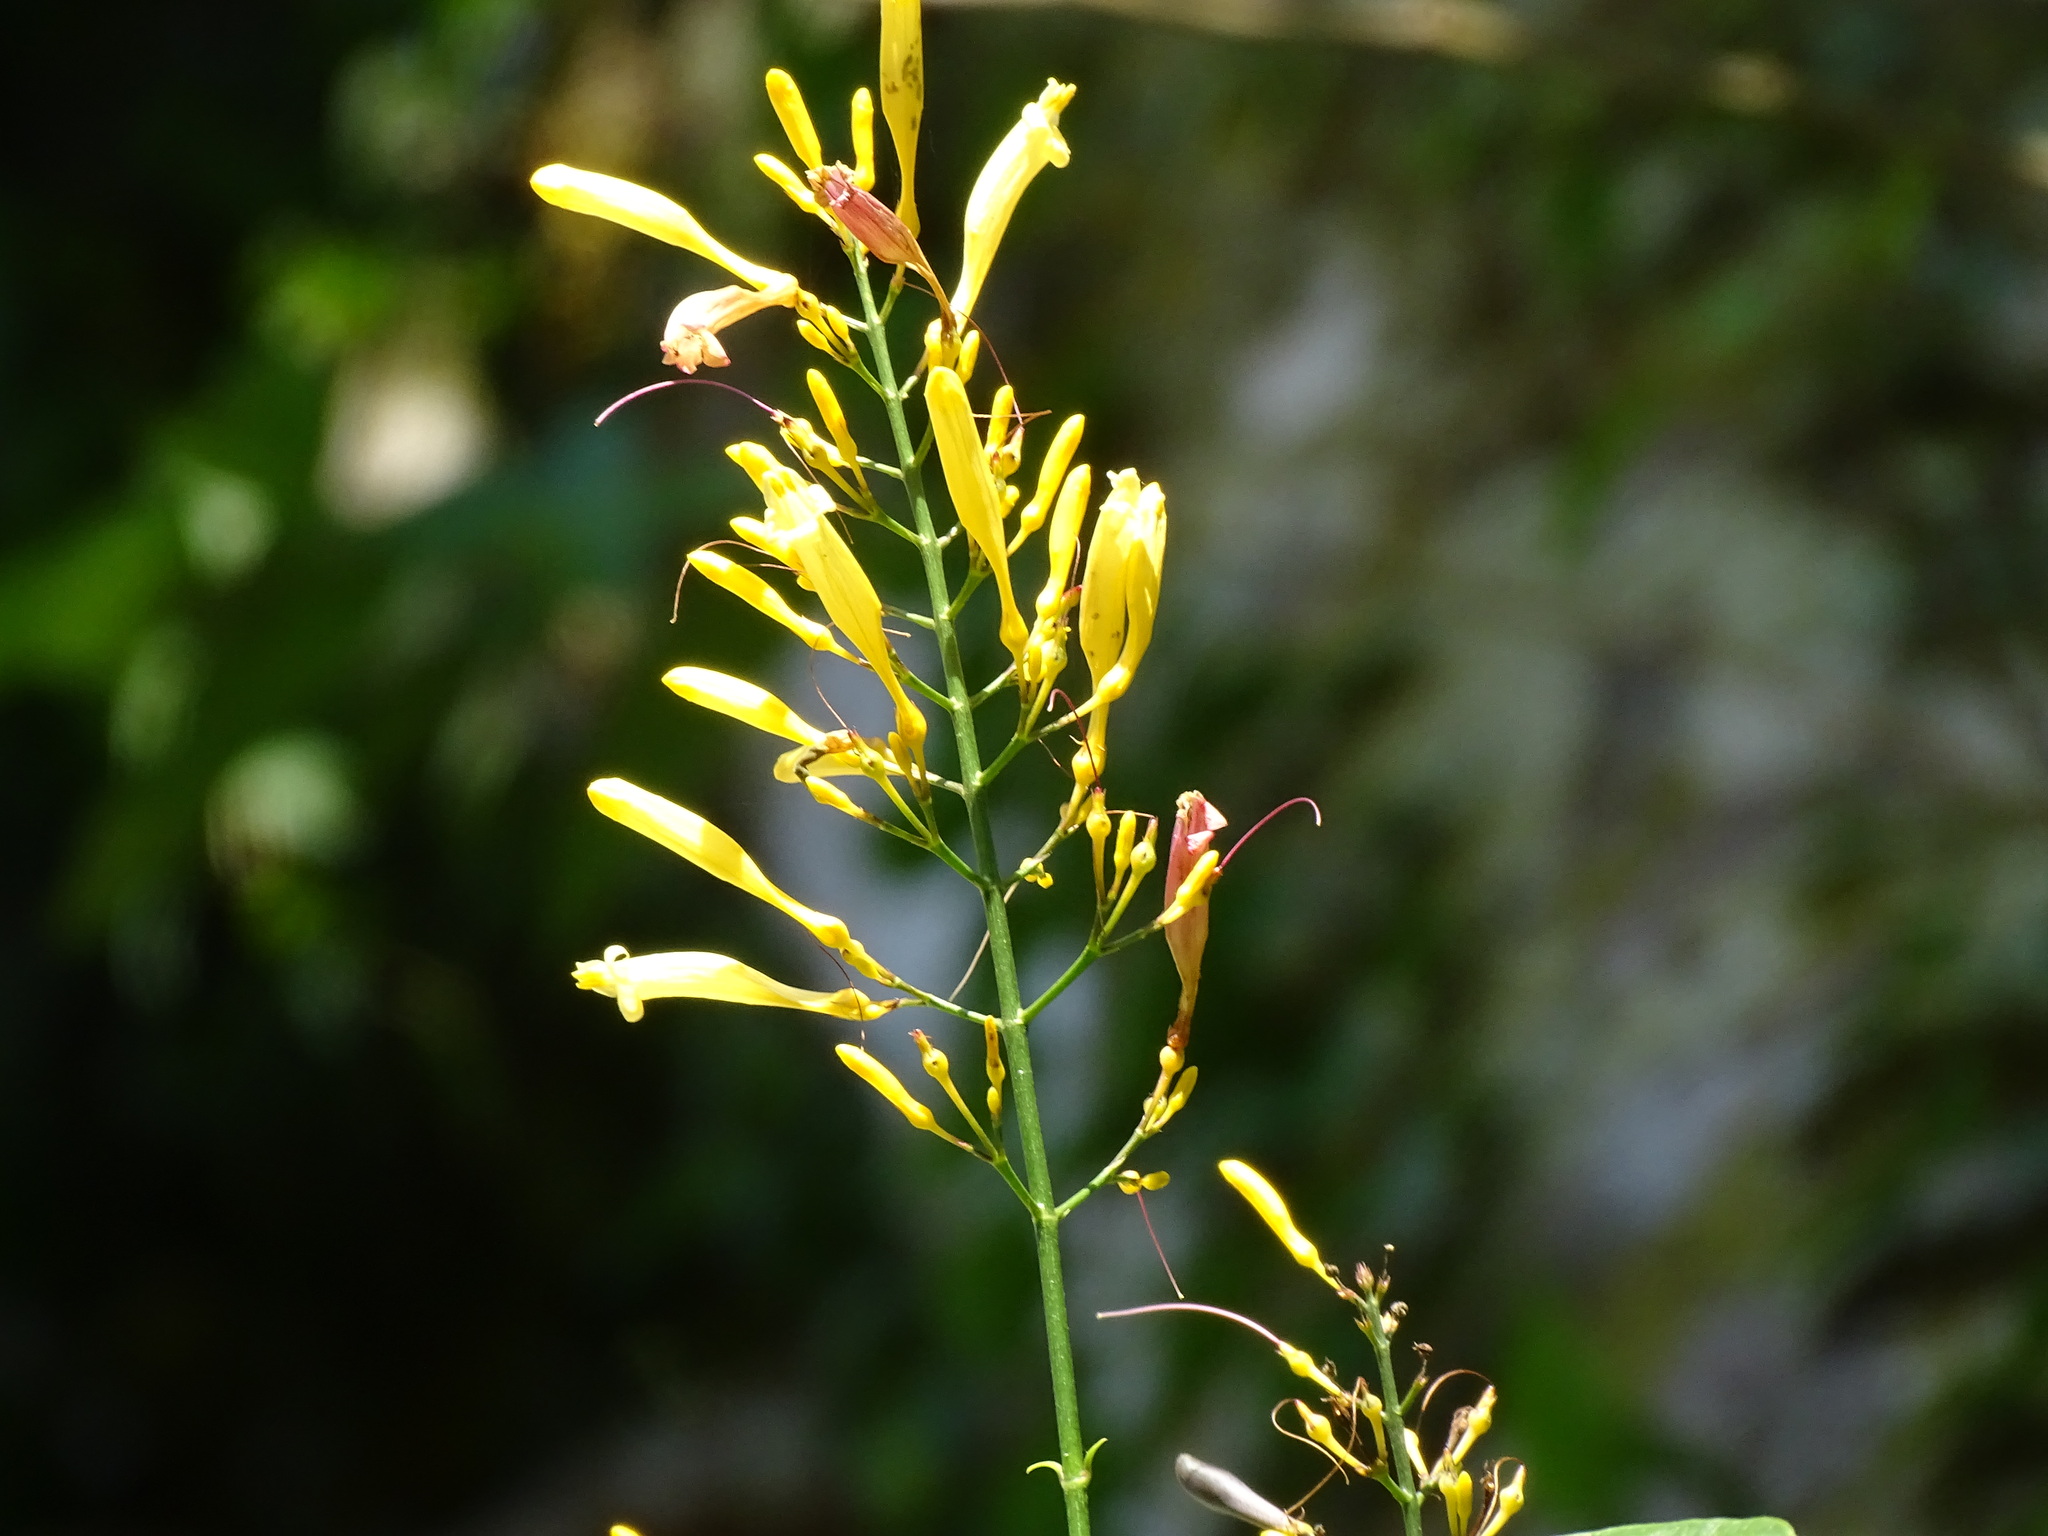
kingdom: Plantae
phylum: Tracheophyta
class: Magnoliopsida
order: Lamiales
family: Acanthaceae
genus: Odontonema
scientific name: Odontonema glabrum
